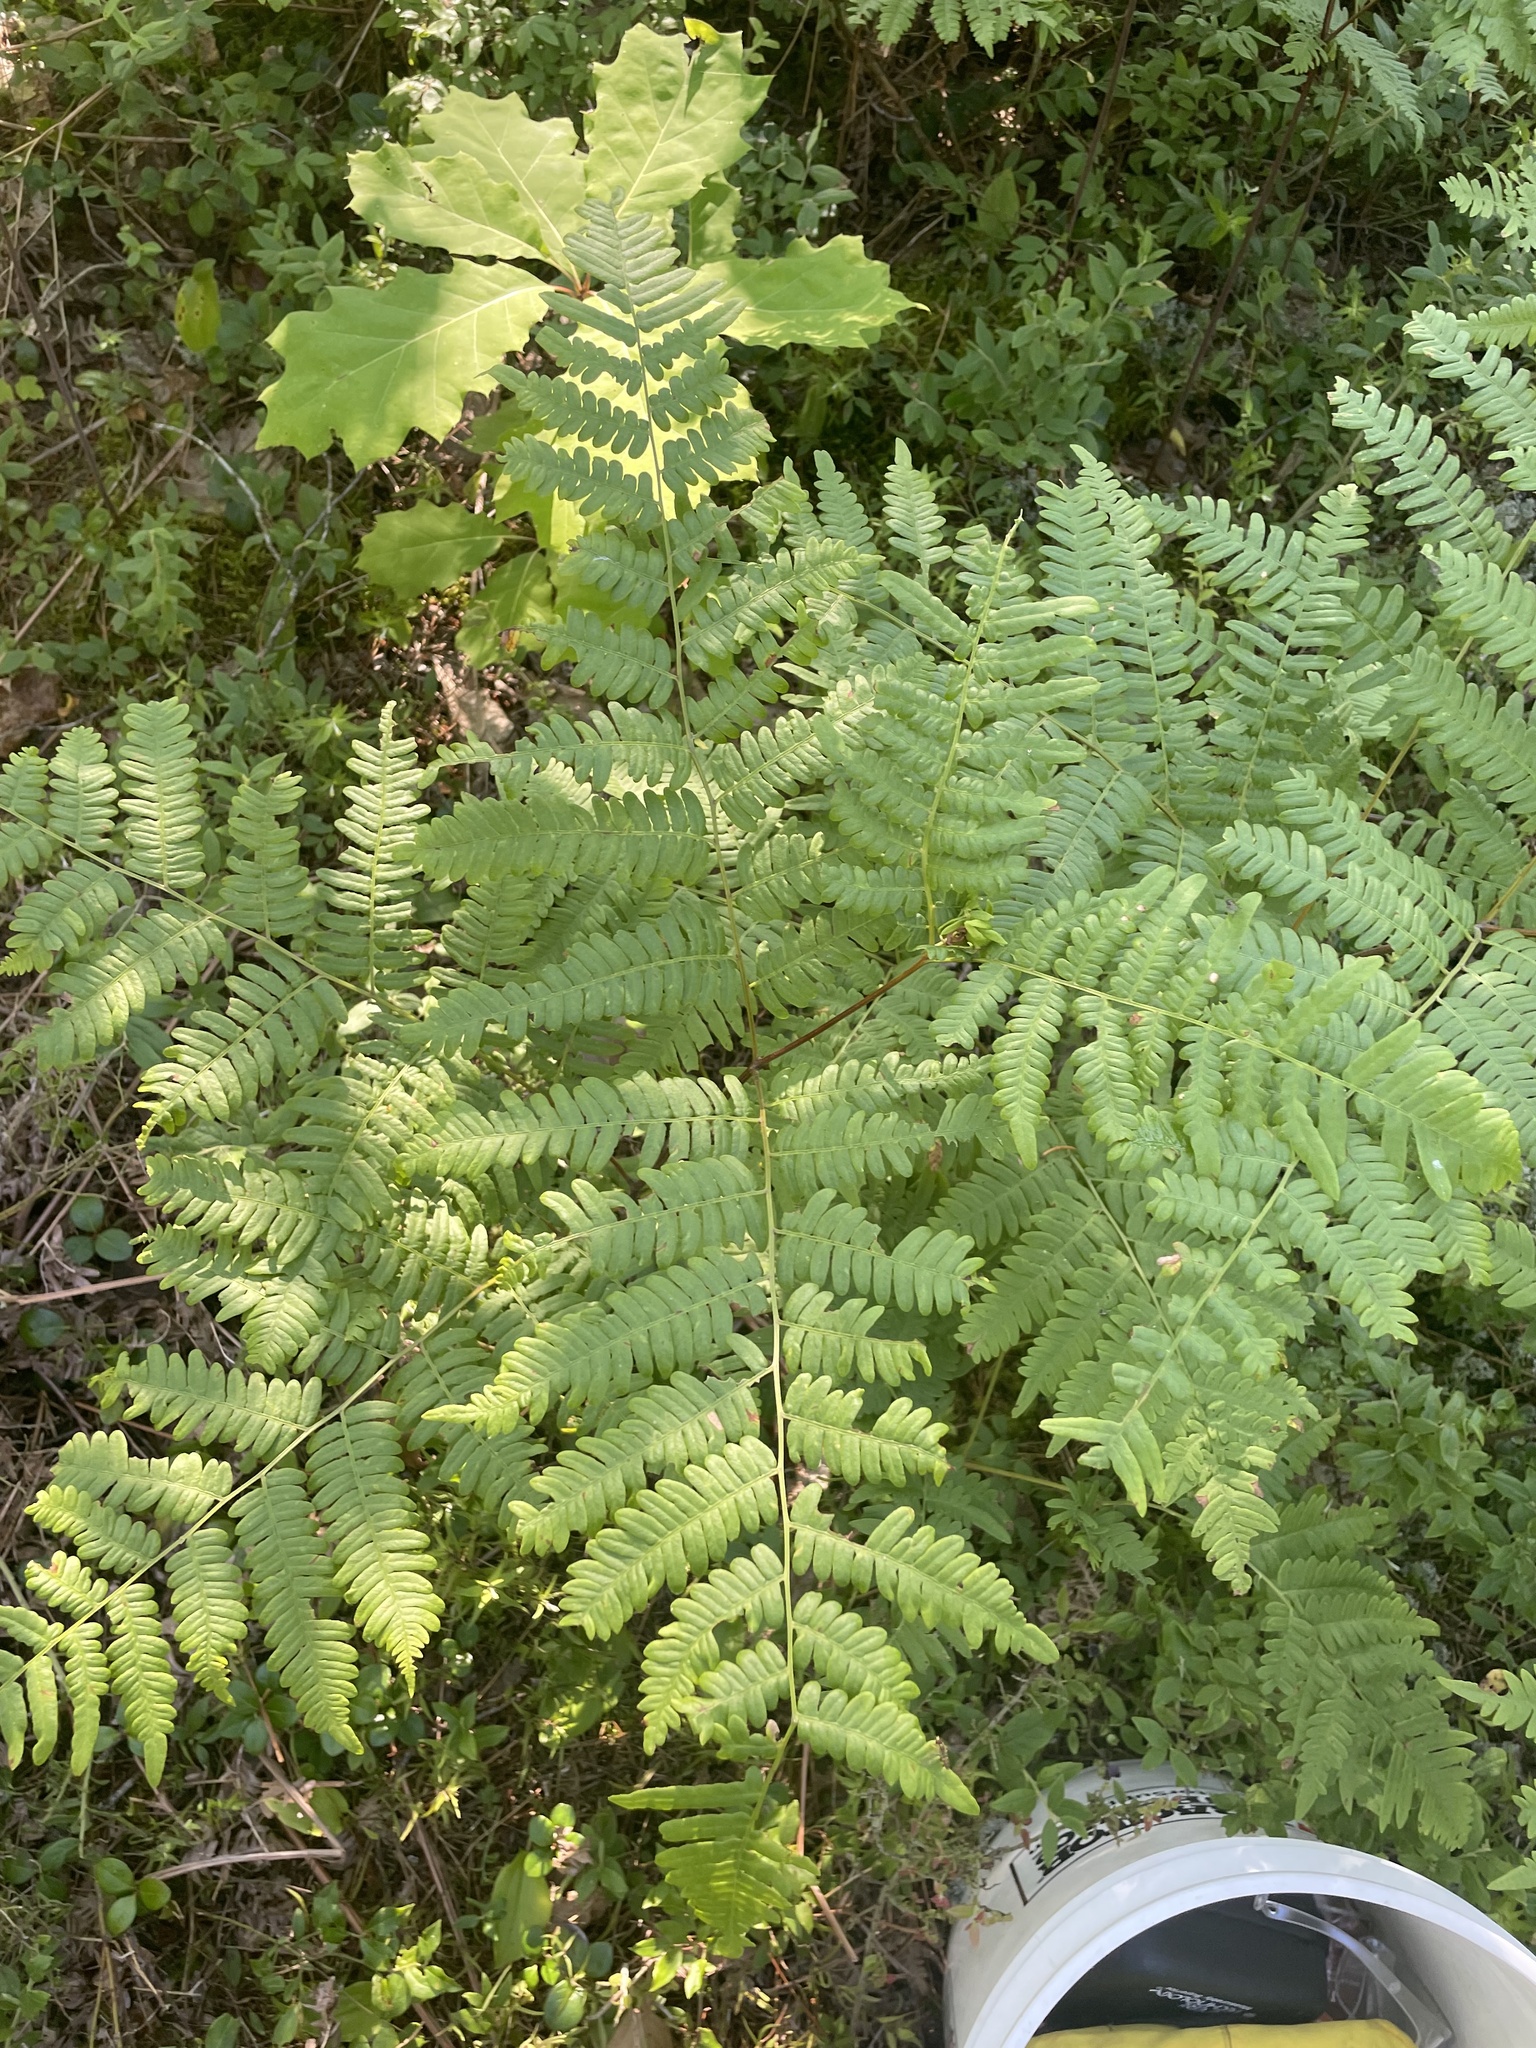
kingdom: Plantae
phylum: Tracheophyta
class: Polypodiopsida
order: Polypodiales
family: Dennstaedtiaceae
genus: Pteridium
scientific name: Pteridium aquilinum
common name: Bracken
